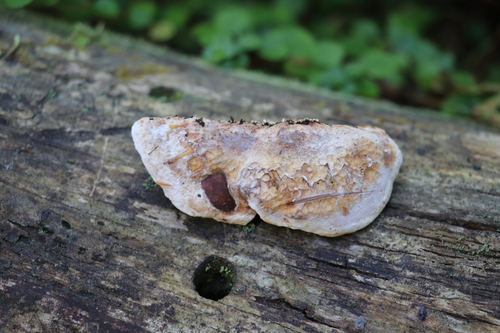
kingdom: Fungi
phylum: Basidiomycota
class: Agaricomycetes
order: Polyporales
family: Meruliaceae
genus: Sarcodontia
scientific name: Sarcodontia spumea
